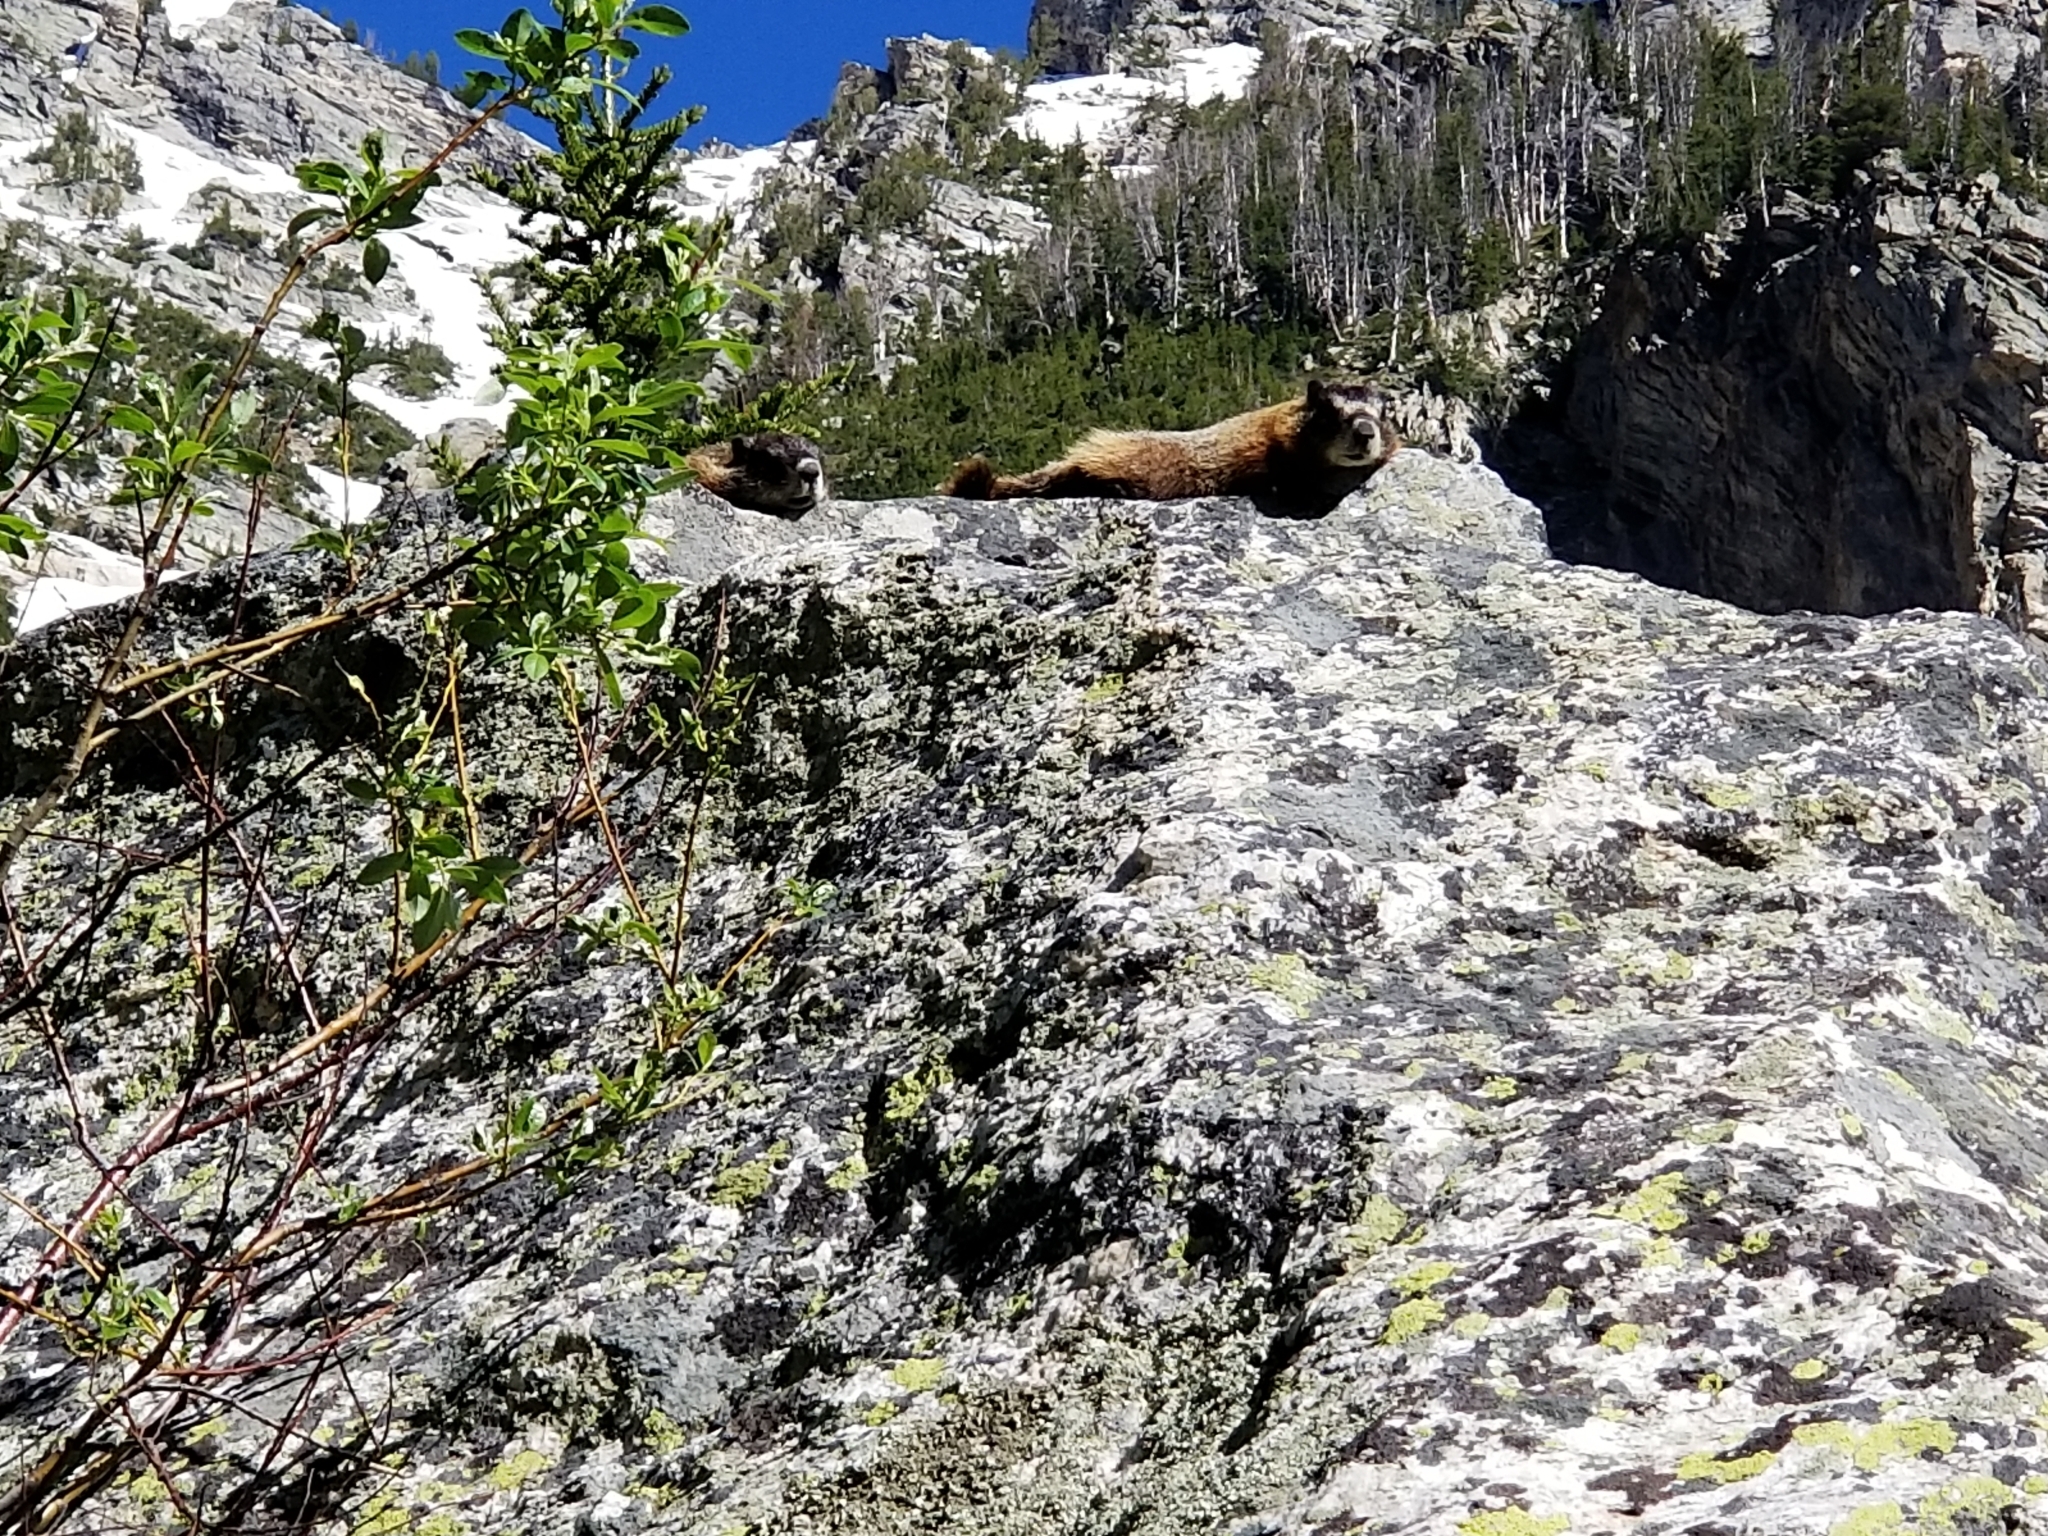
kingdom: Animalia
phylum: Chordata
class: Mammalia
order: Rodentia
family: Sciuridae
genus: Marmota
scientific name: Marmota flaviventris
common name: Yellow-bellied marmot
